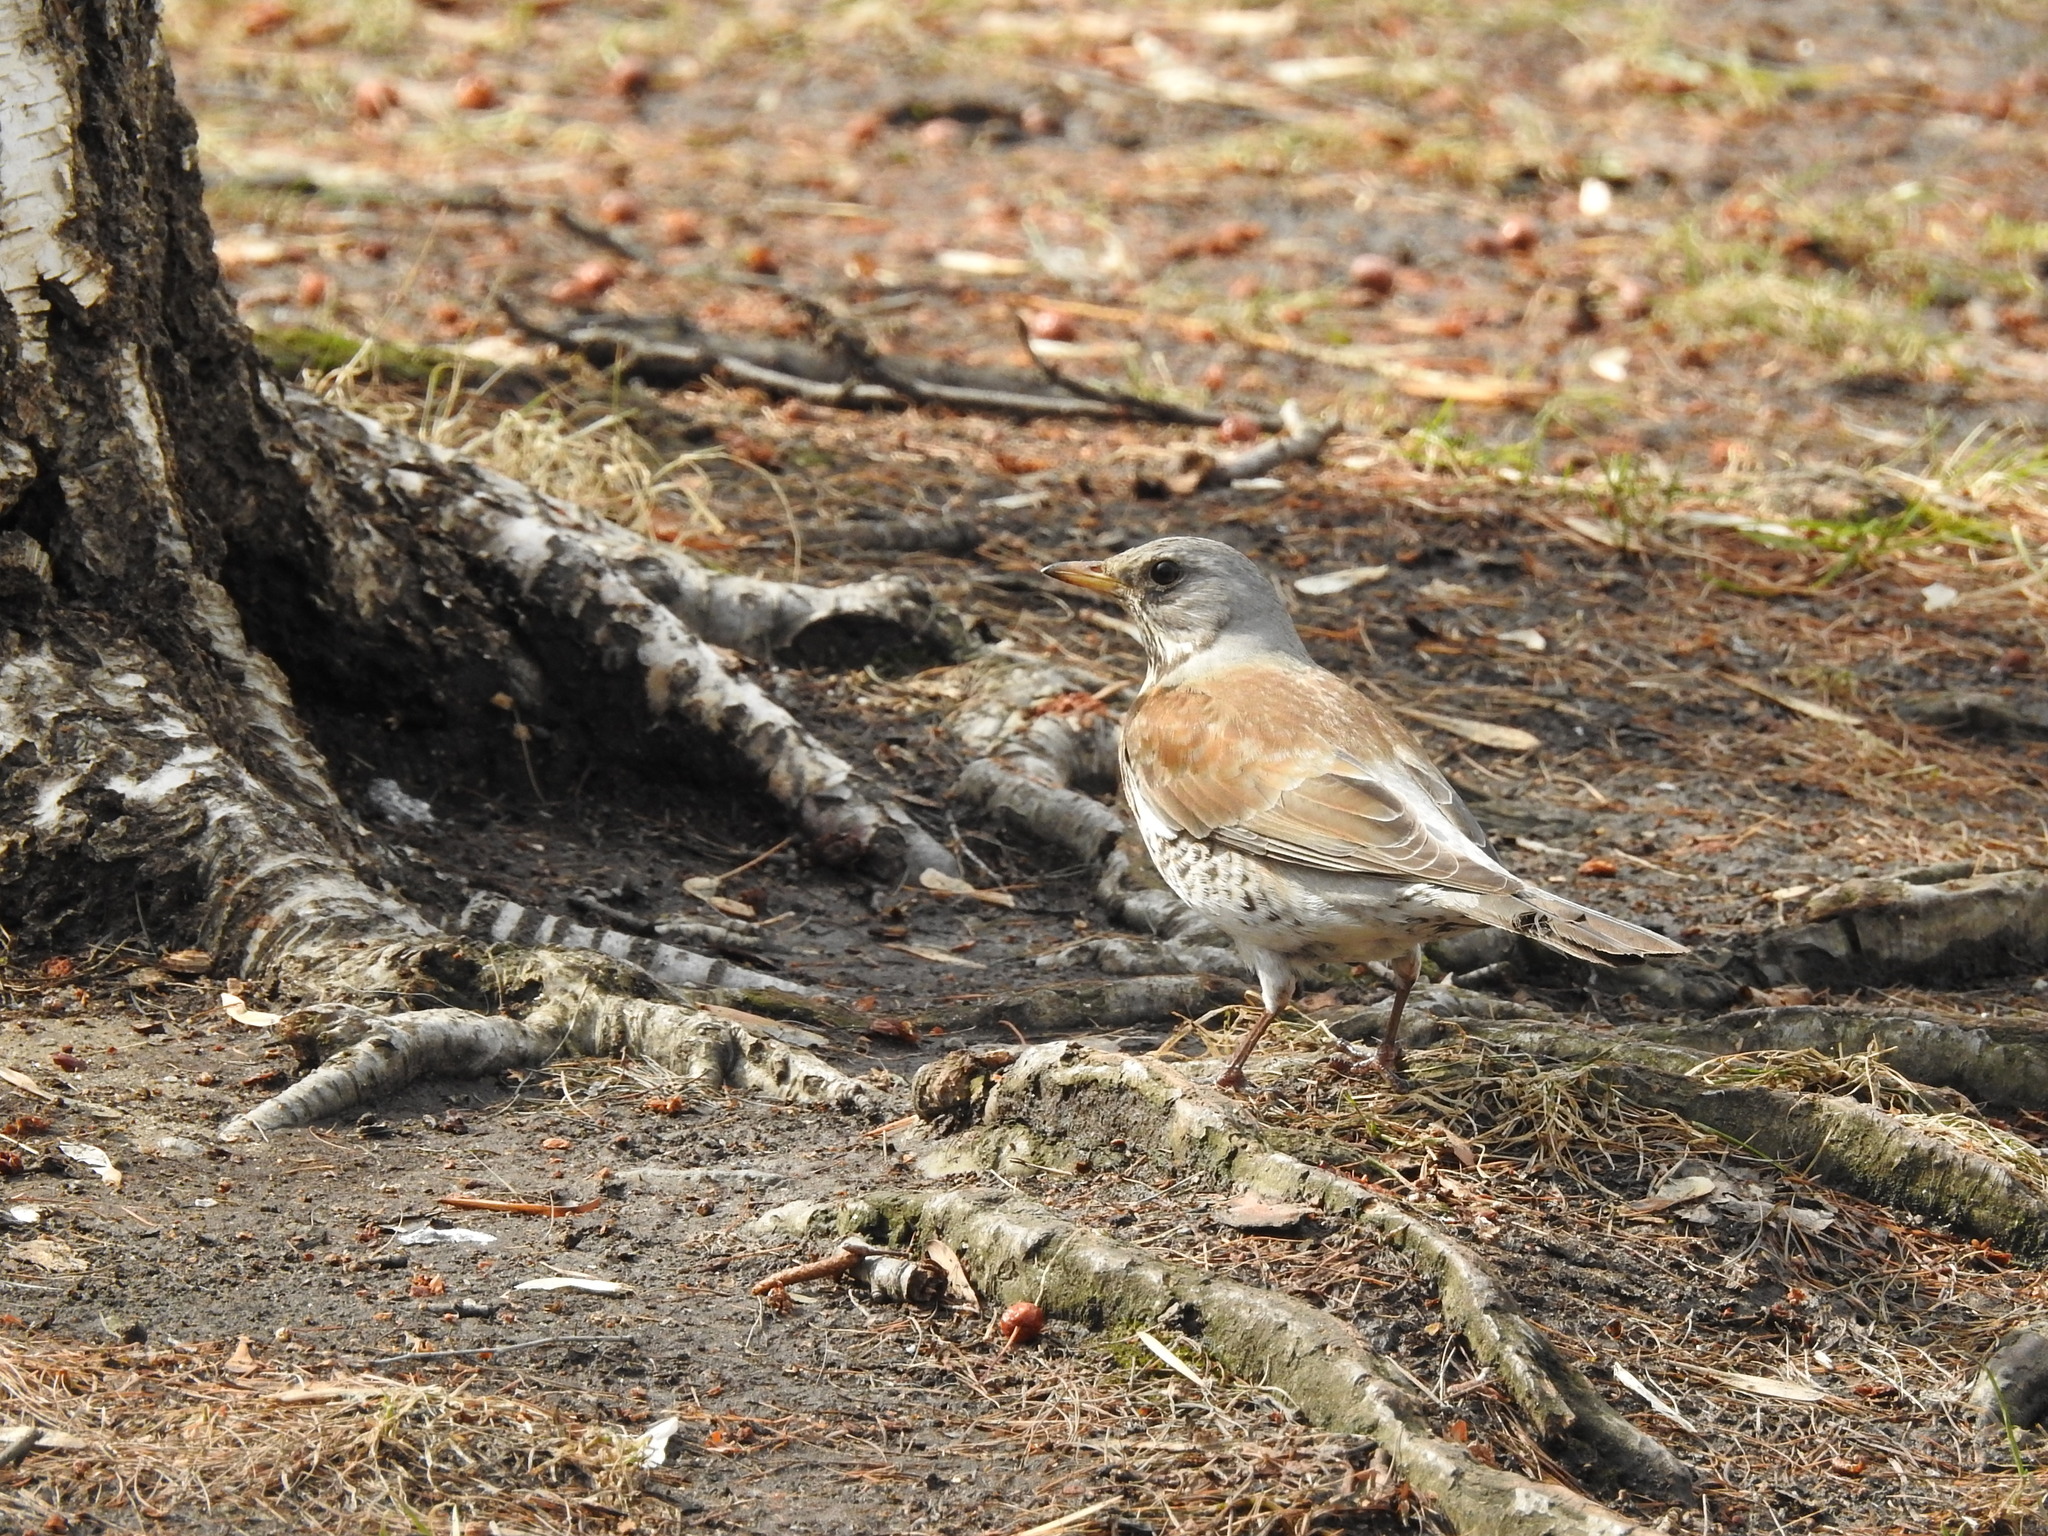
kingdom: Animalia
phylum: Chordata
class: Aves
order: Passeriformes
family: Turdidae
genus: Turdus
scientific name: Turdus pilaris
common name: Fieldfare
